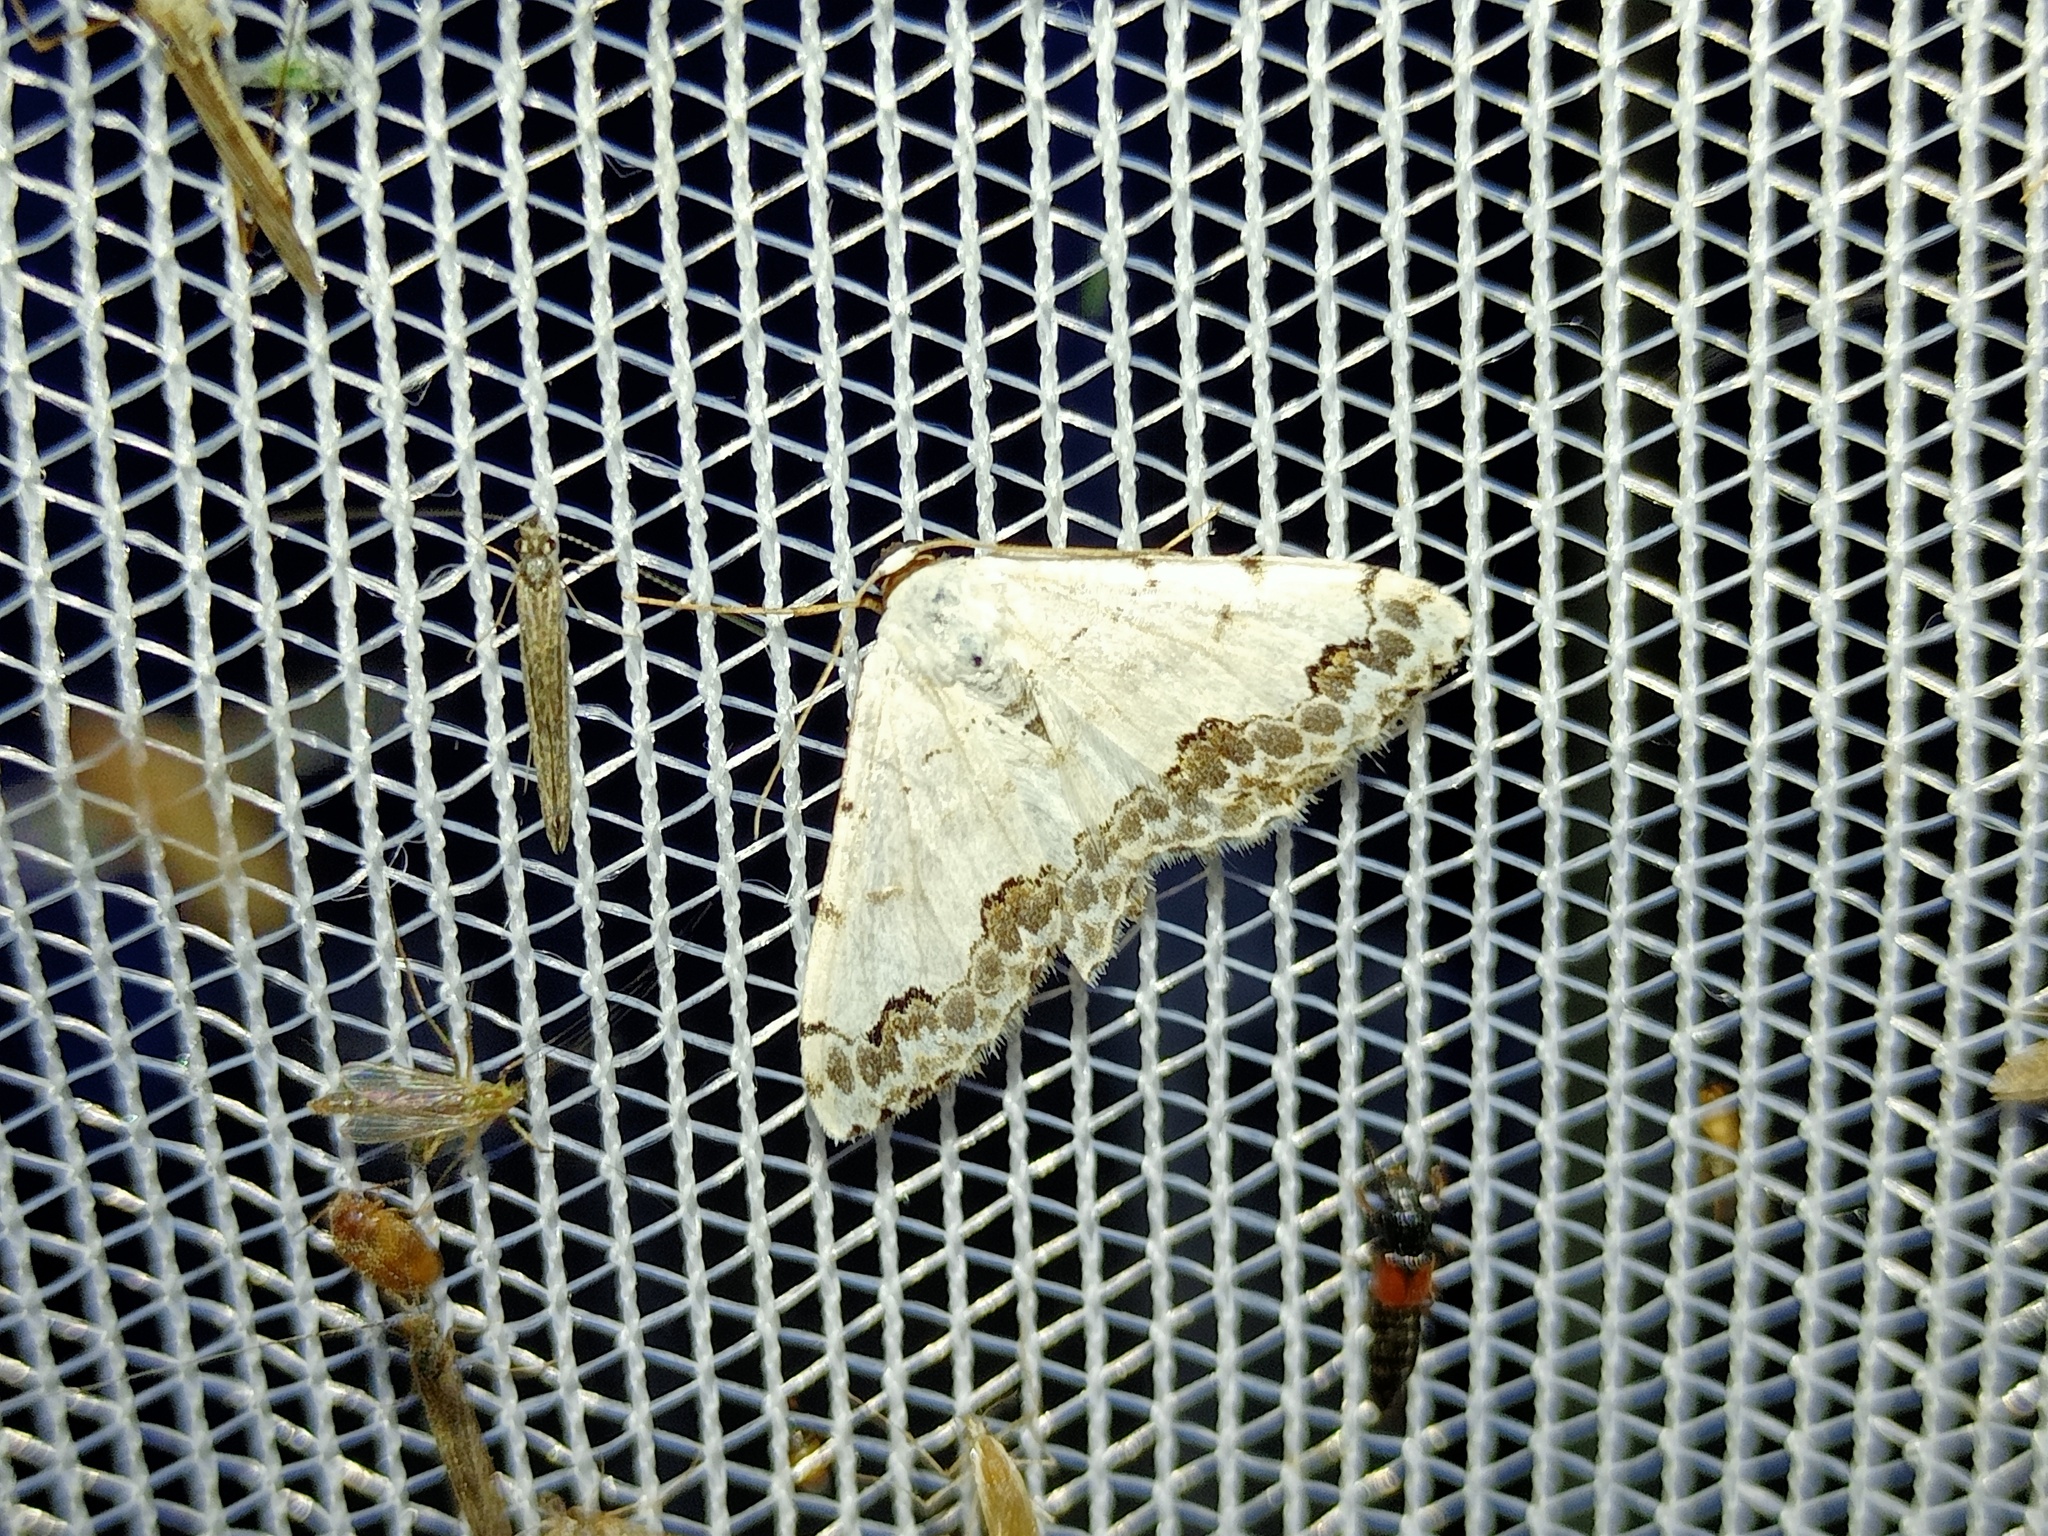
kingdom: Animalia
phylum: Arthropoda
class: Insecta
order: Lepidoptera
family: Geometridae
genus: Scopula
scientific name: Scopula decorata
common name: Middle lace border
